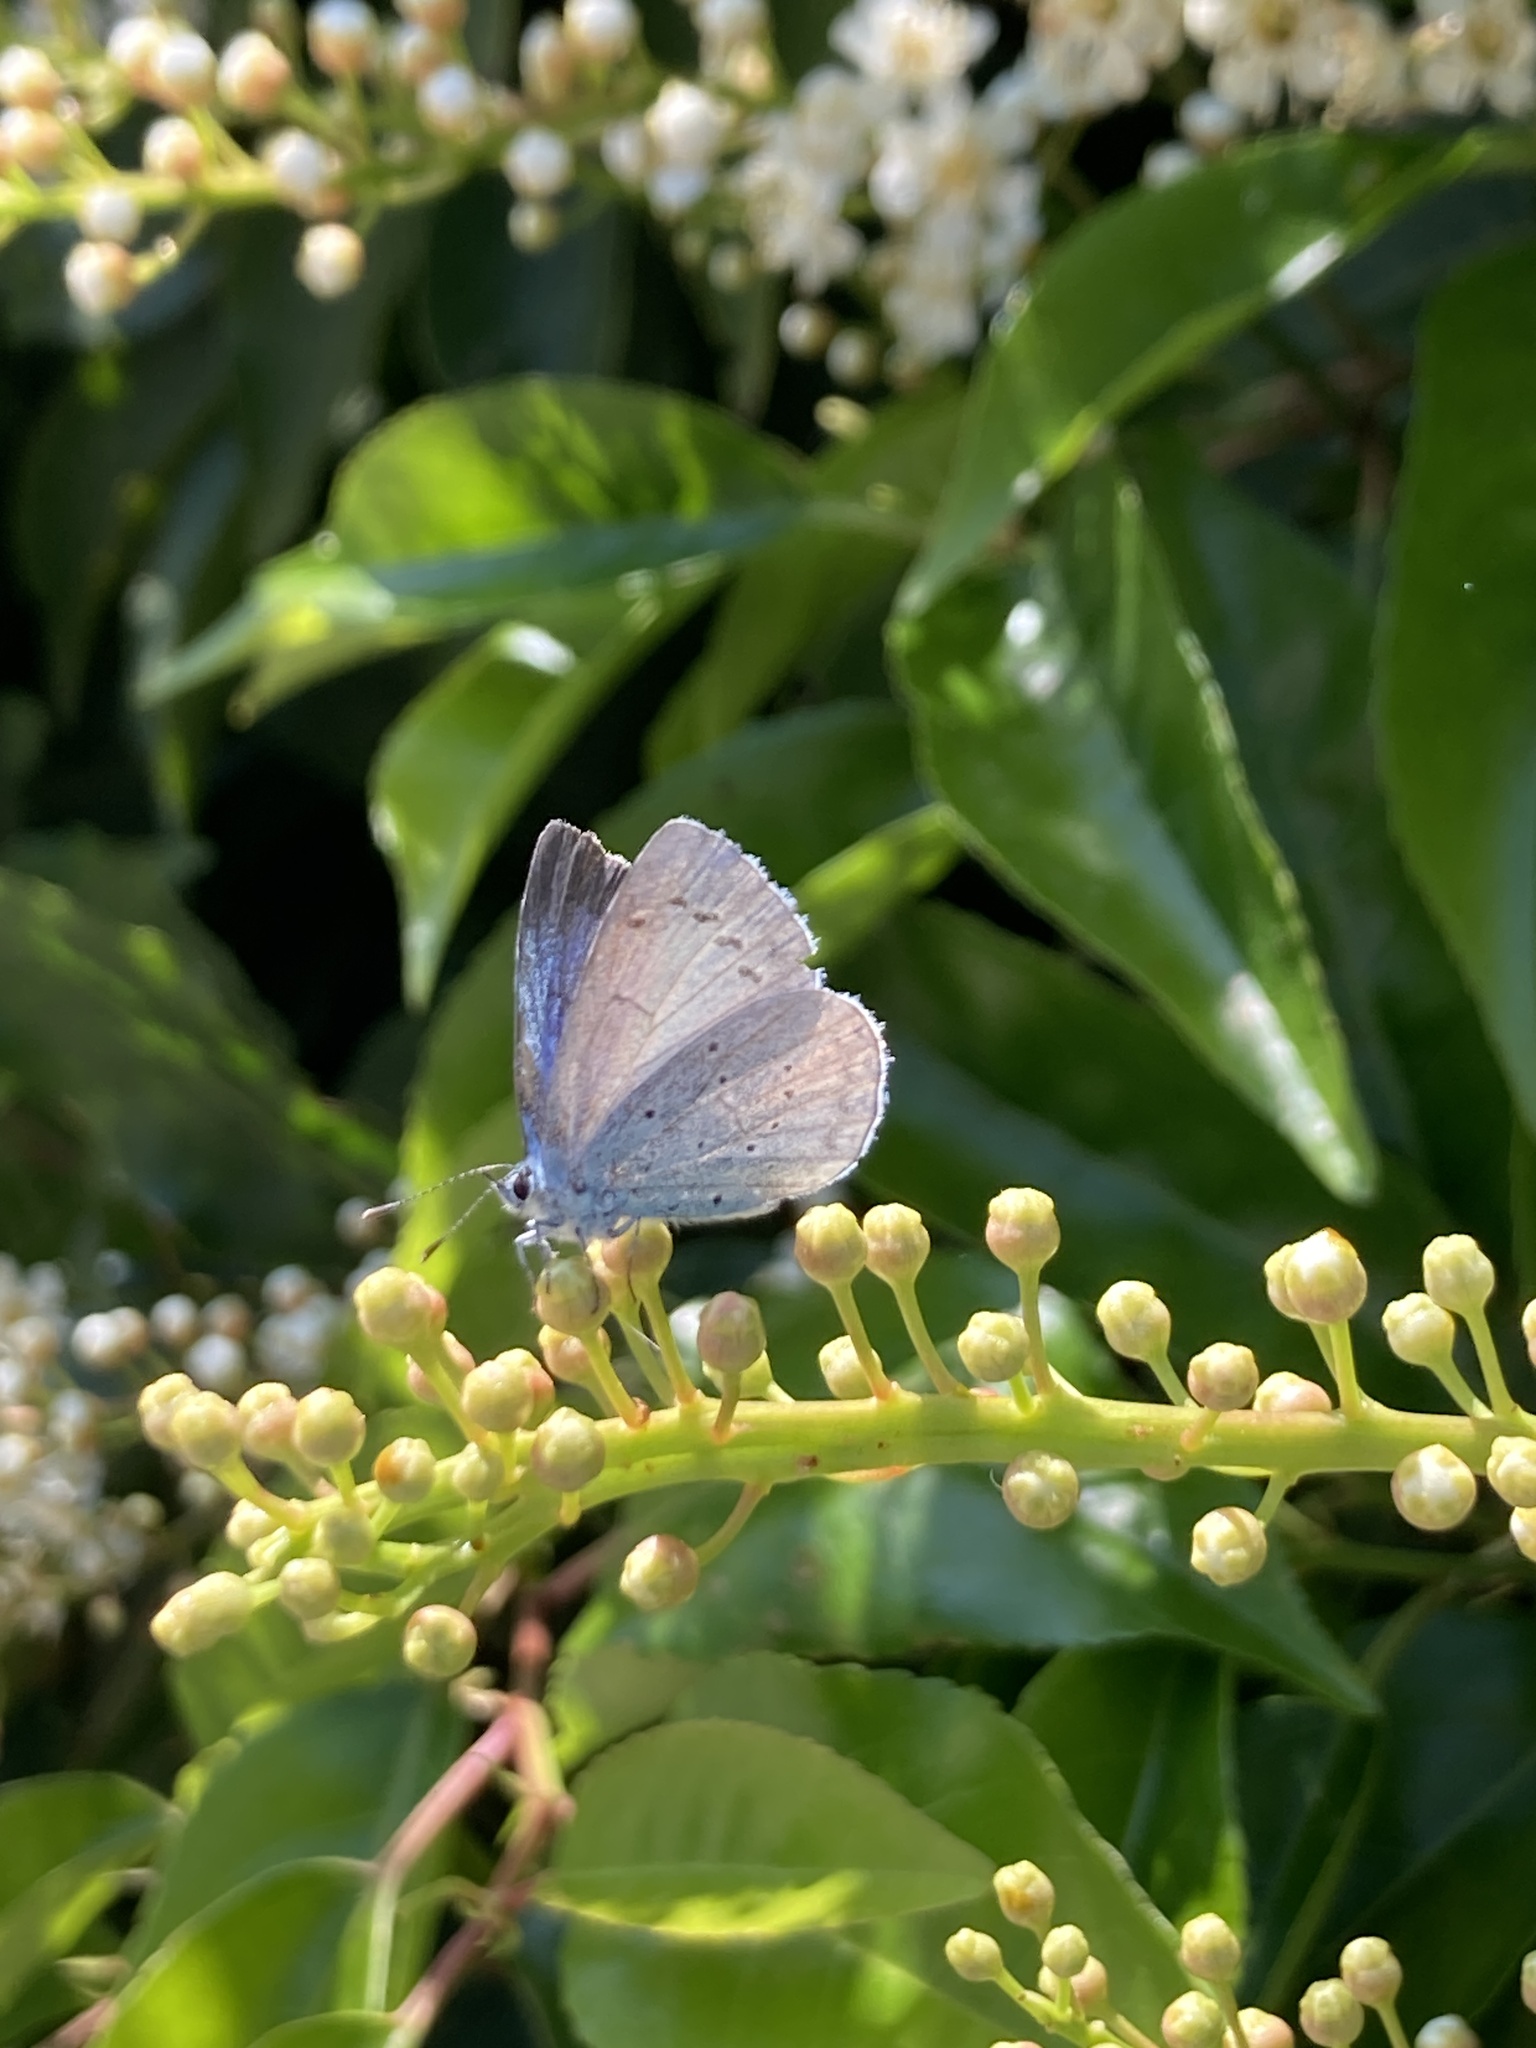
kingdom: Animalia
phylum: Arthropoda
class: Insecta
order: Lepidoptera
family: Lycaenidae
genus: Celastrina
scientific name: Celastrina argiolus
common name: Holly blue
